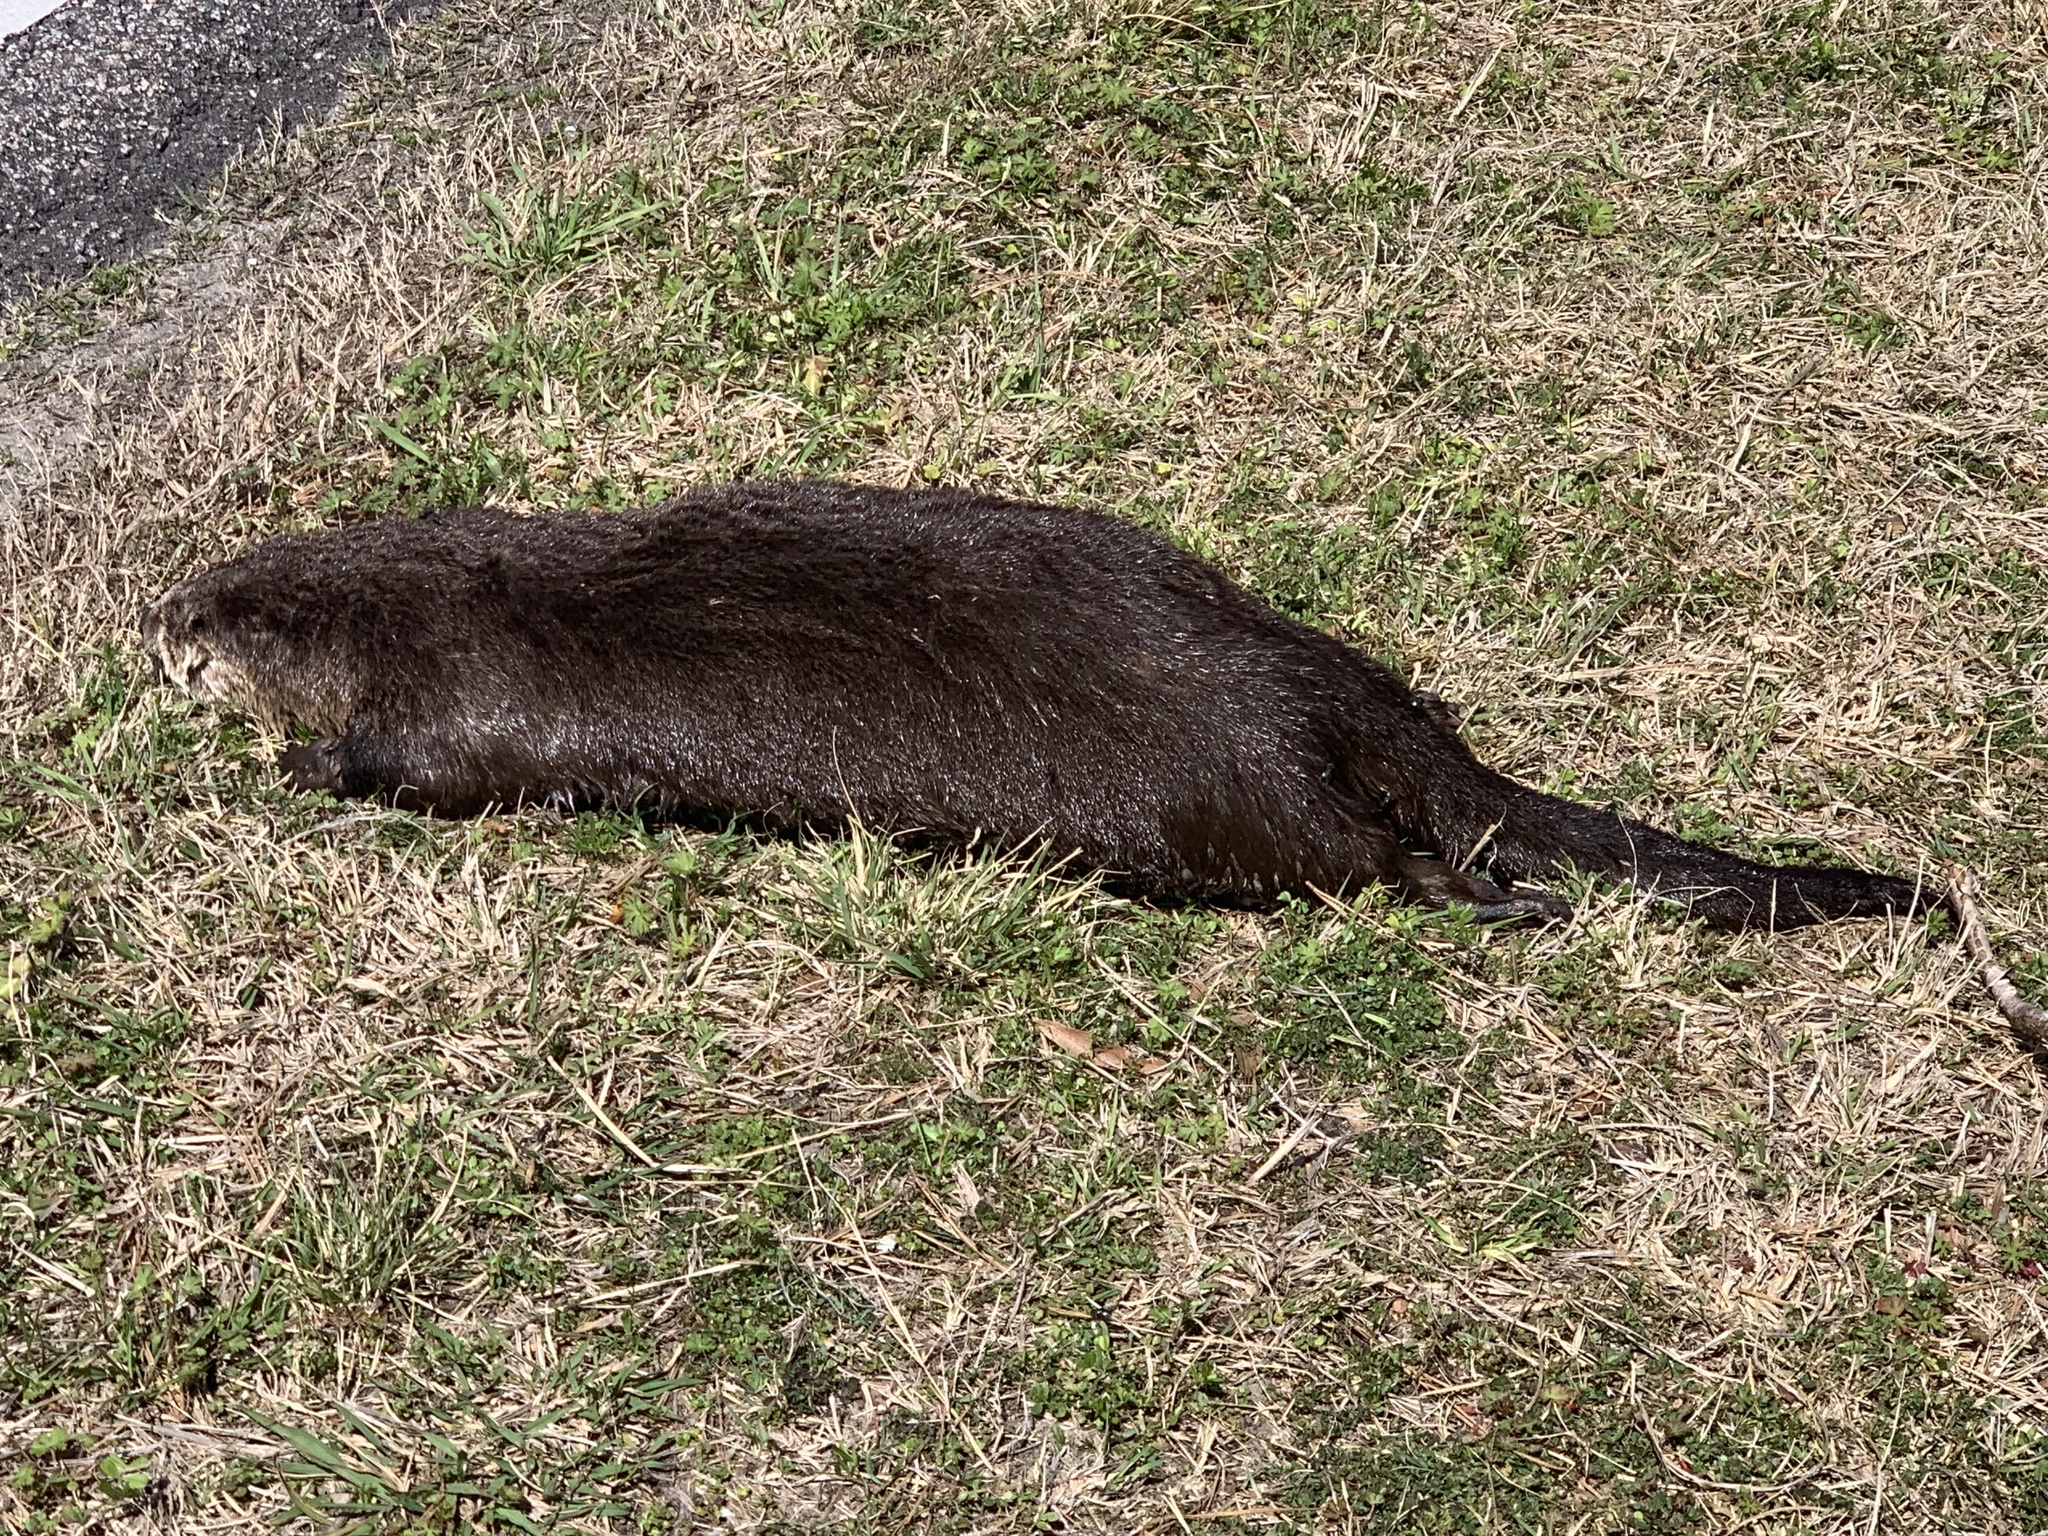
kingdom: Animalia
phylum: Chordata
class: Mammalia
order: Carnivora
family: Mustelidae
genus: Lontra
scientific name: Lontra canadensis
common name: North american river otter
